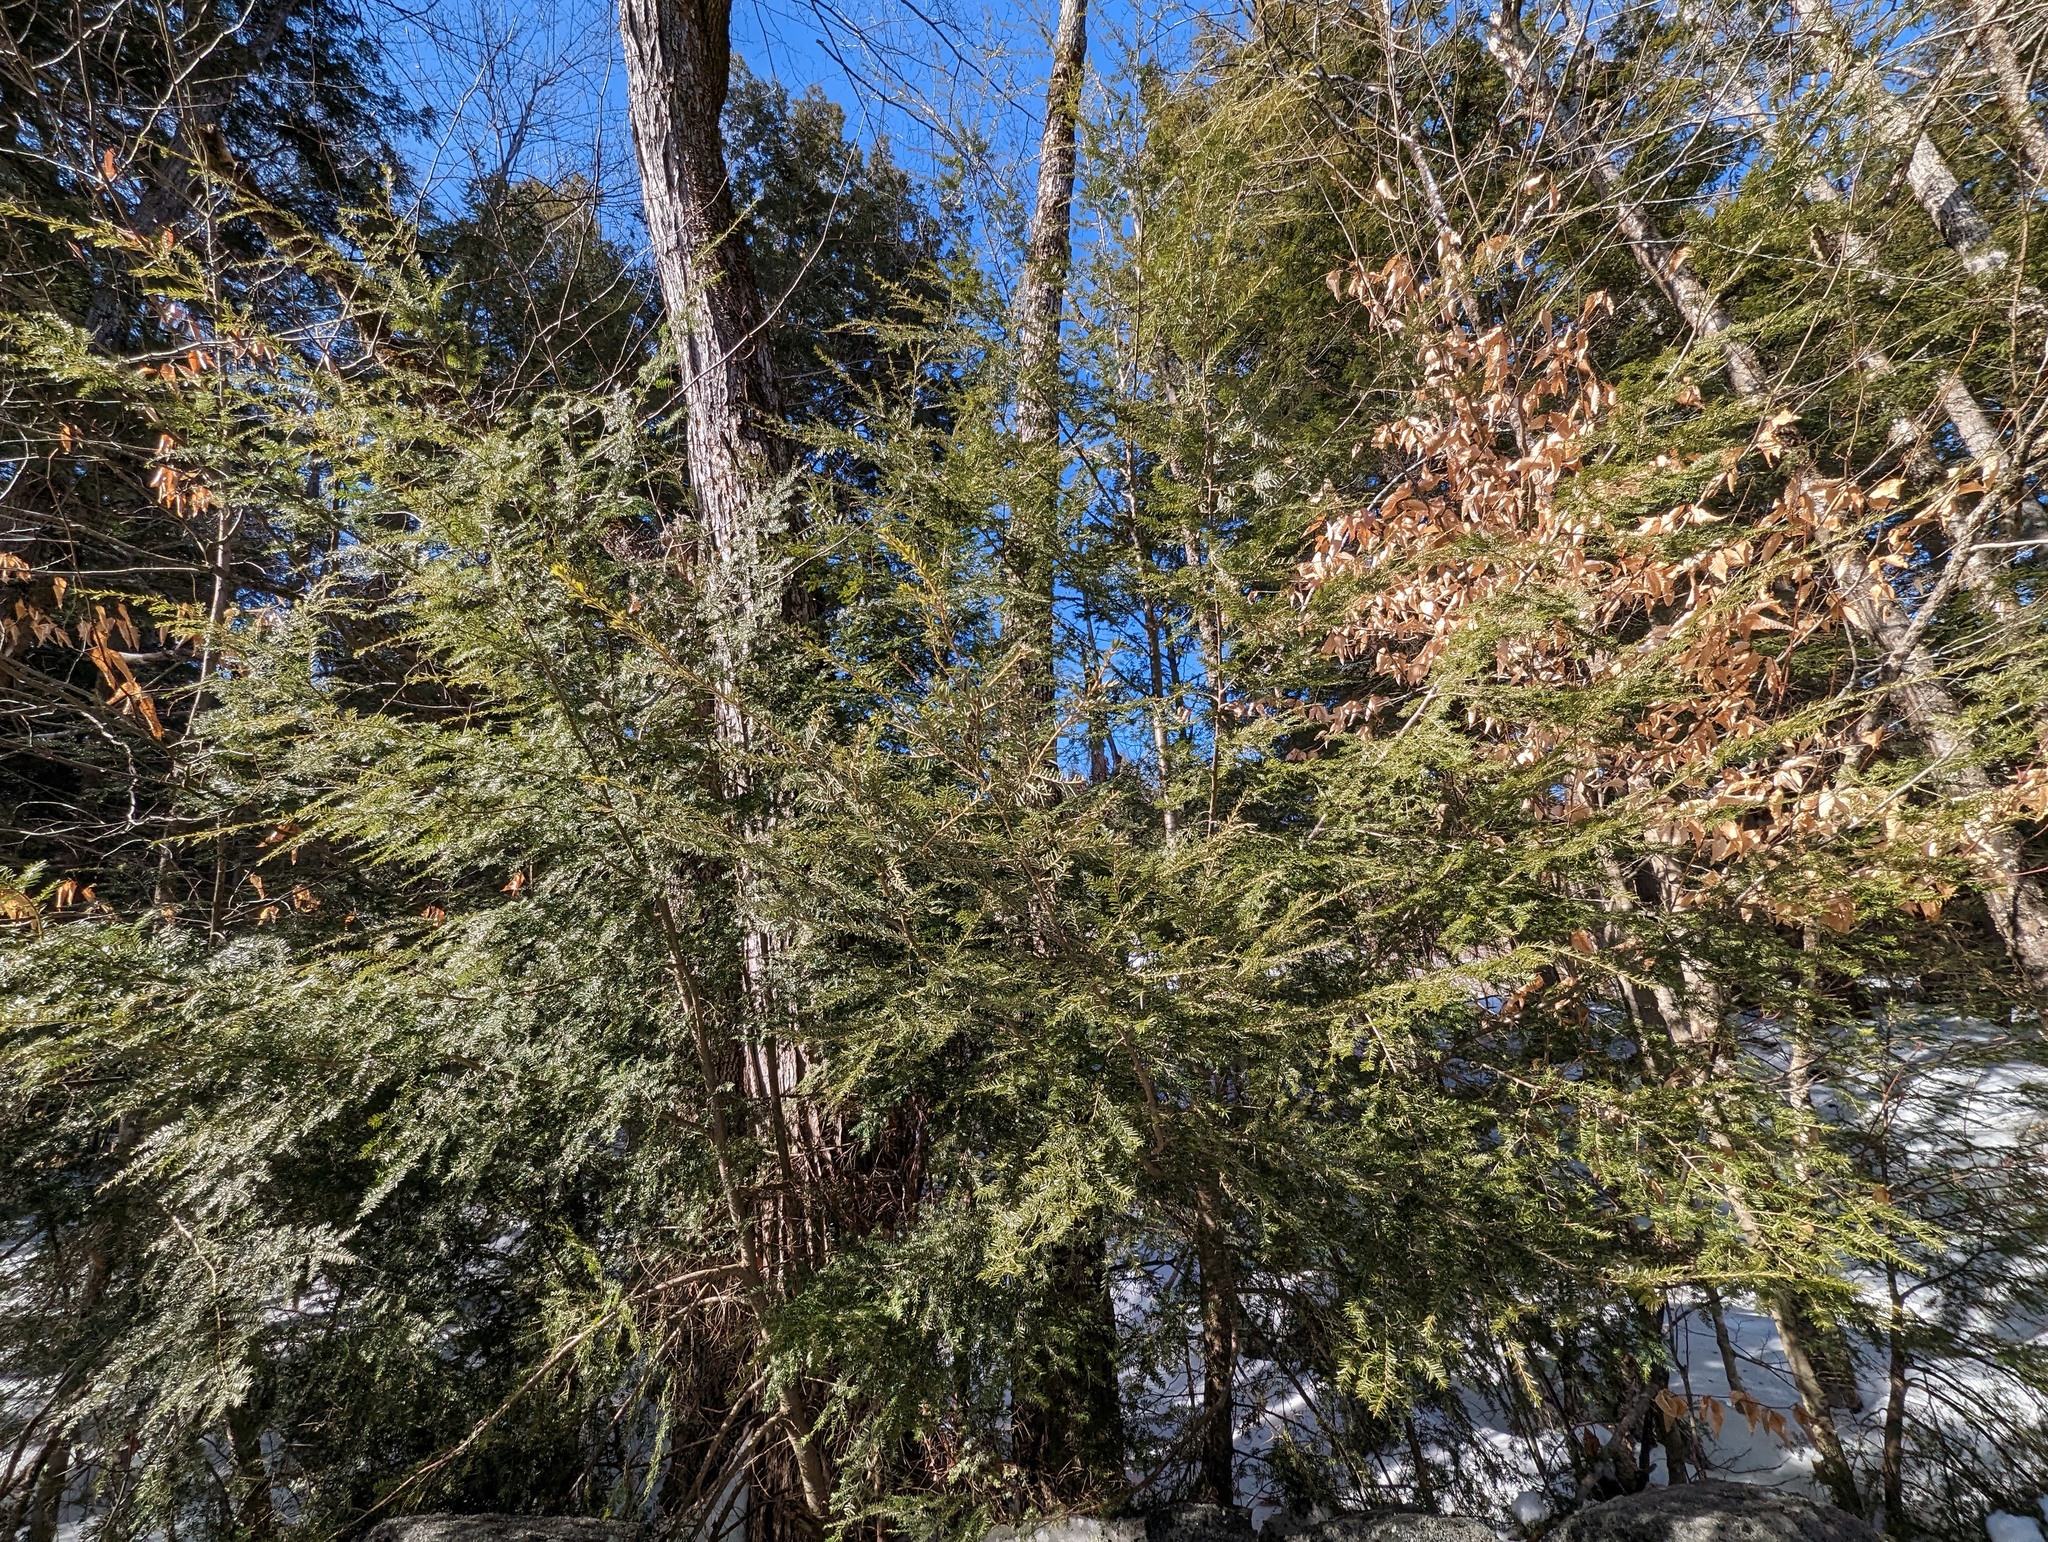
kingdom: Plantae
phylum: Tracheophyta
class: Pinopsida
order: Pinales
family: Pinaceae
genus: Tsuga
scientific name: Tsuga canadensis
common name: Eastern hemlock
